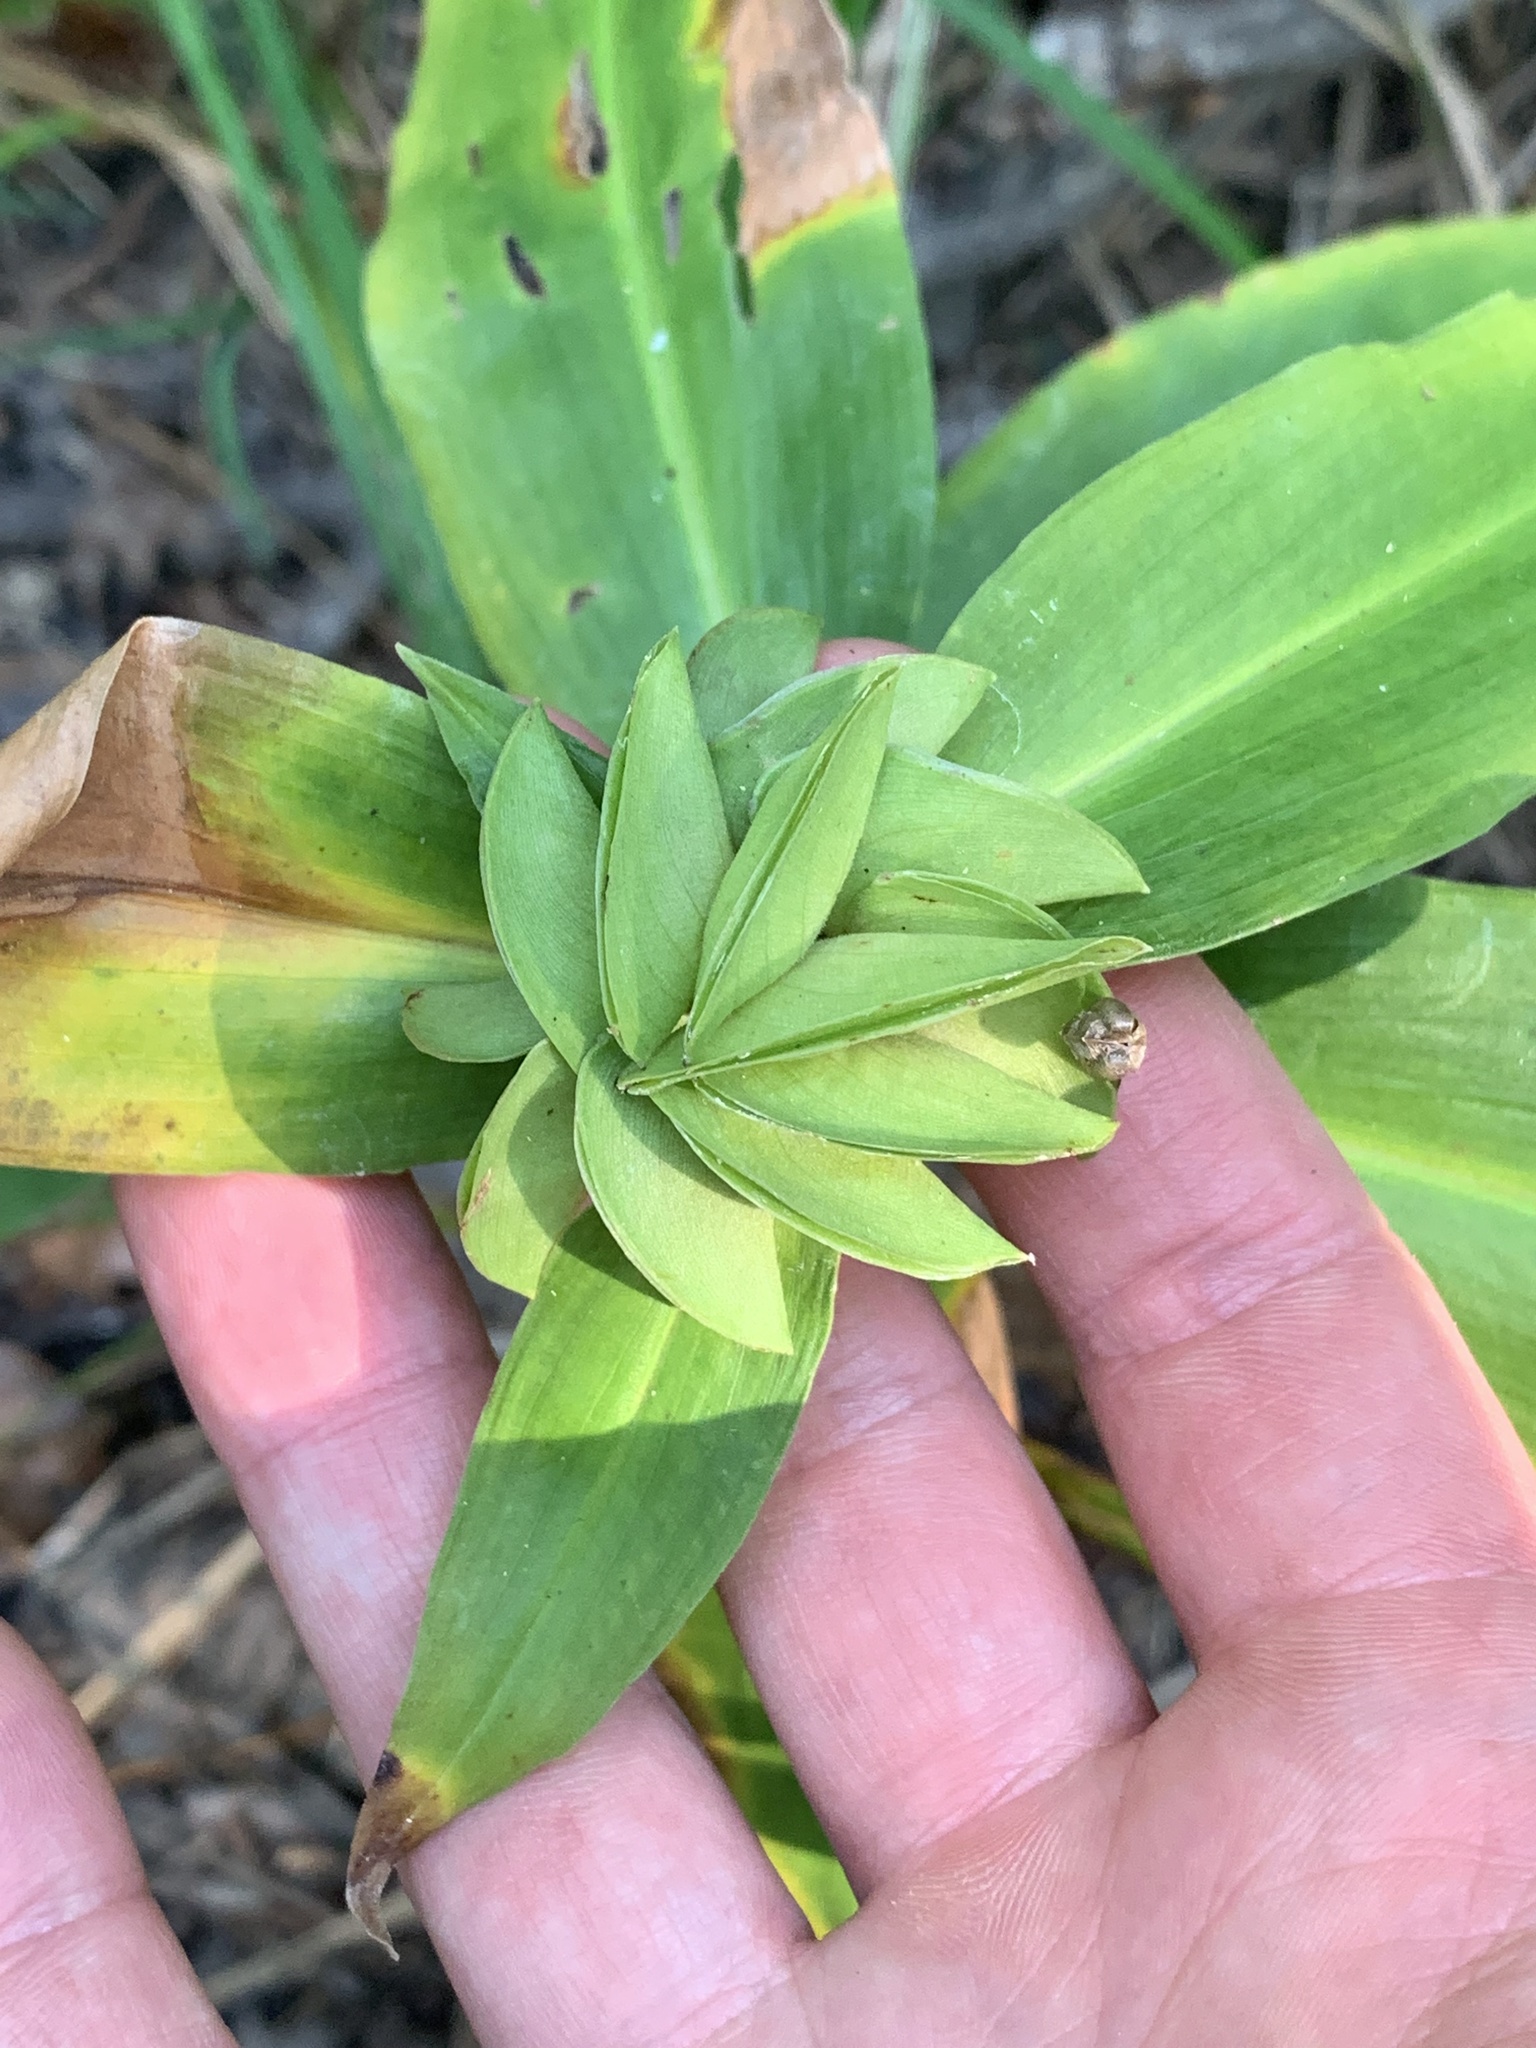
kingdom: Plantae
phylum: Tracheophyta
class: Liliopsida
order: Commelinales
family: Commelinaceae
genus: Commelina
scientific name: Commelina virginica
